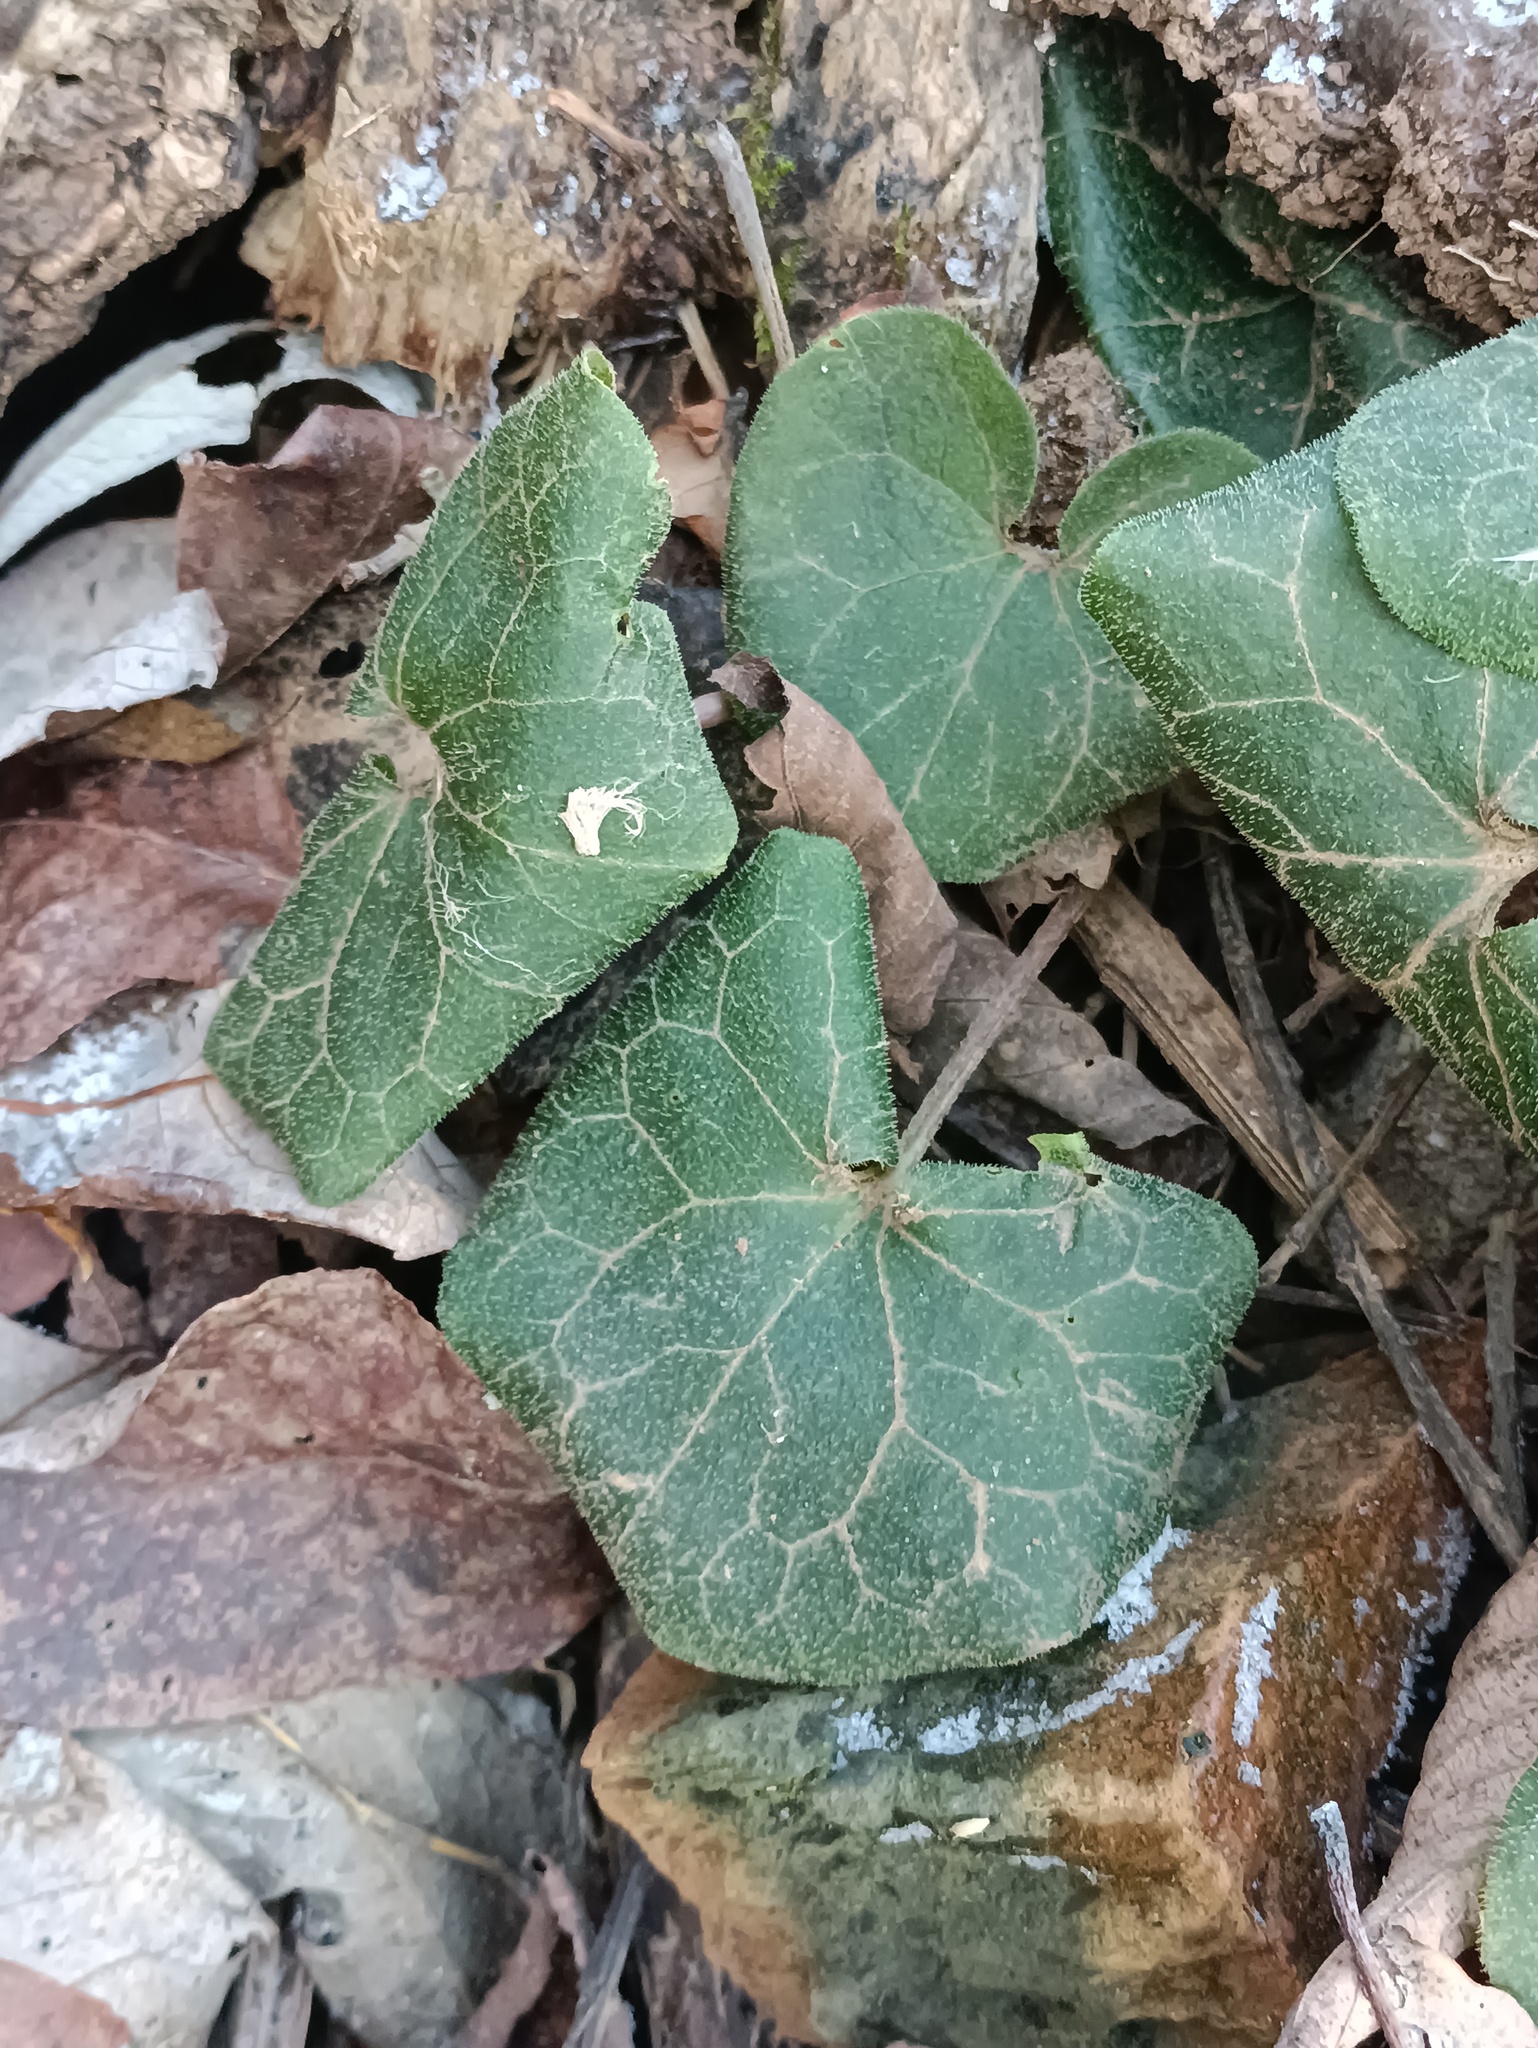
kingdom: Plantae
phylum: Tracheophyta
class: Magnoliopsida
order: Piperales
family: Aristolochiaceae
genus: Asarum
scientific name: Asarum europaeum
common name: Asarabacca
